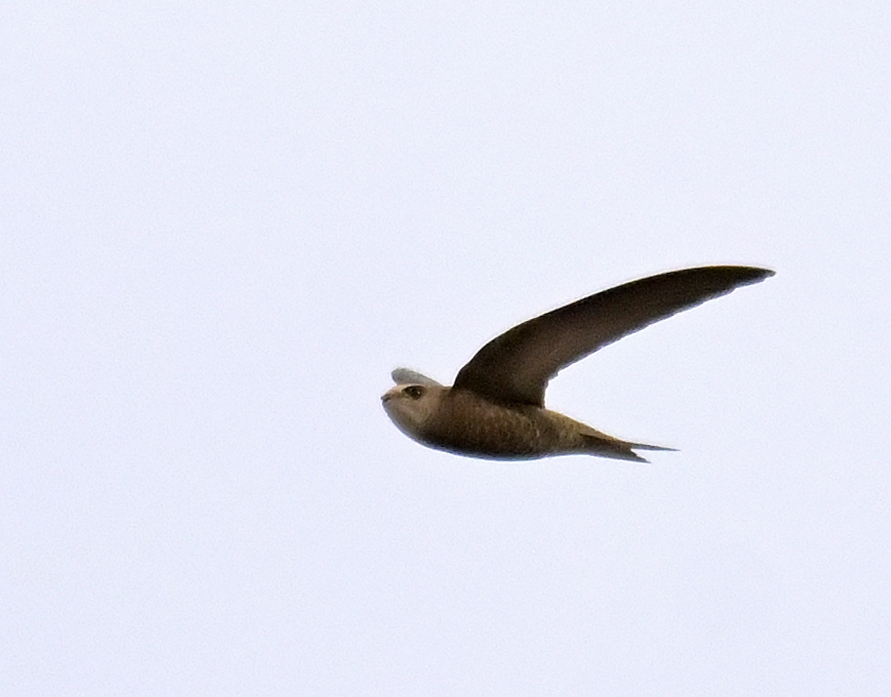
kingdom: Animalia
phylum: Chordata
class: Aves
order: Apodiformes
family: Apodidae
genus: Apus
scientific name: Apus pallidus
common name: Pallid swift
